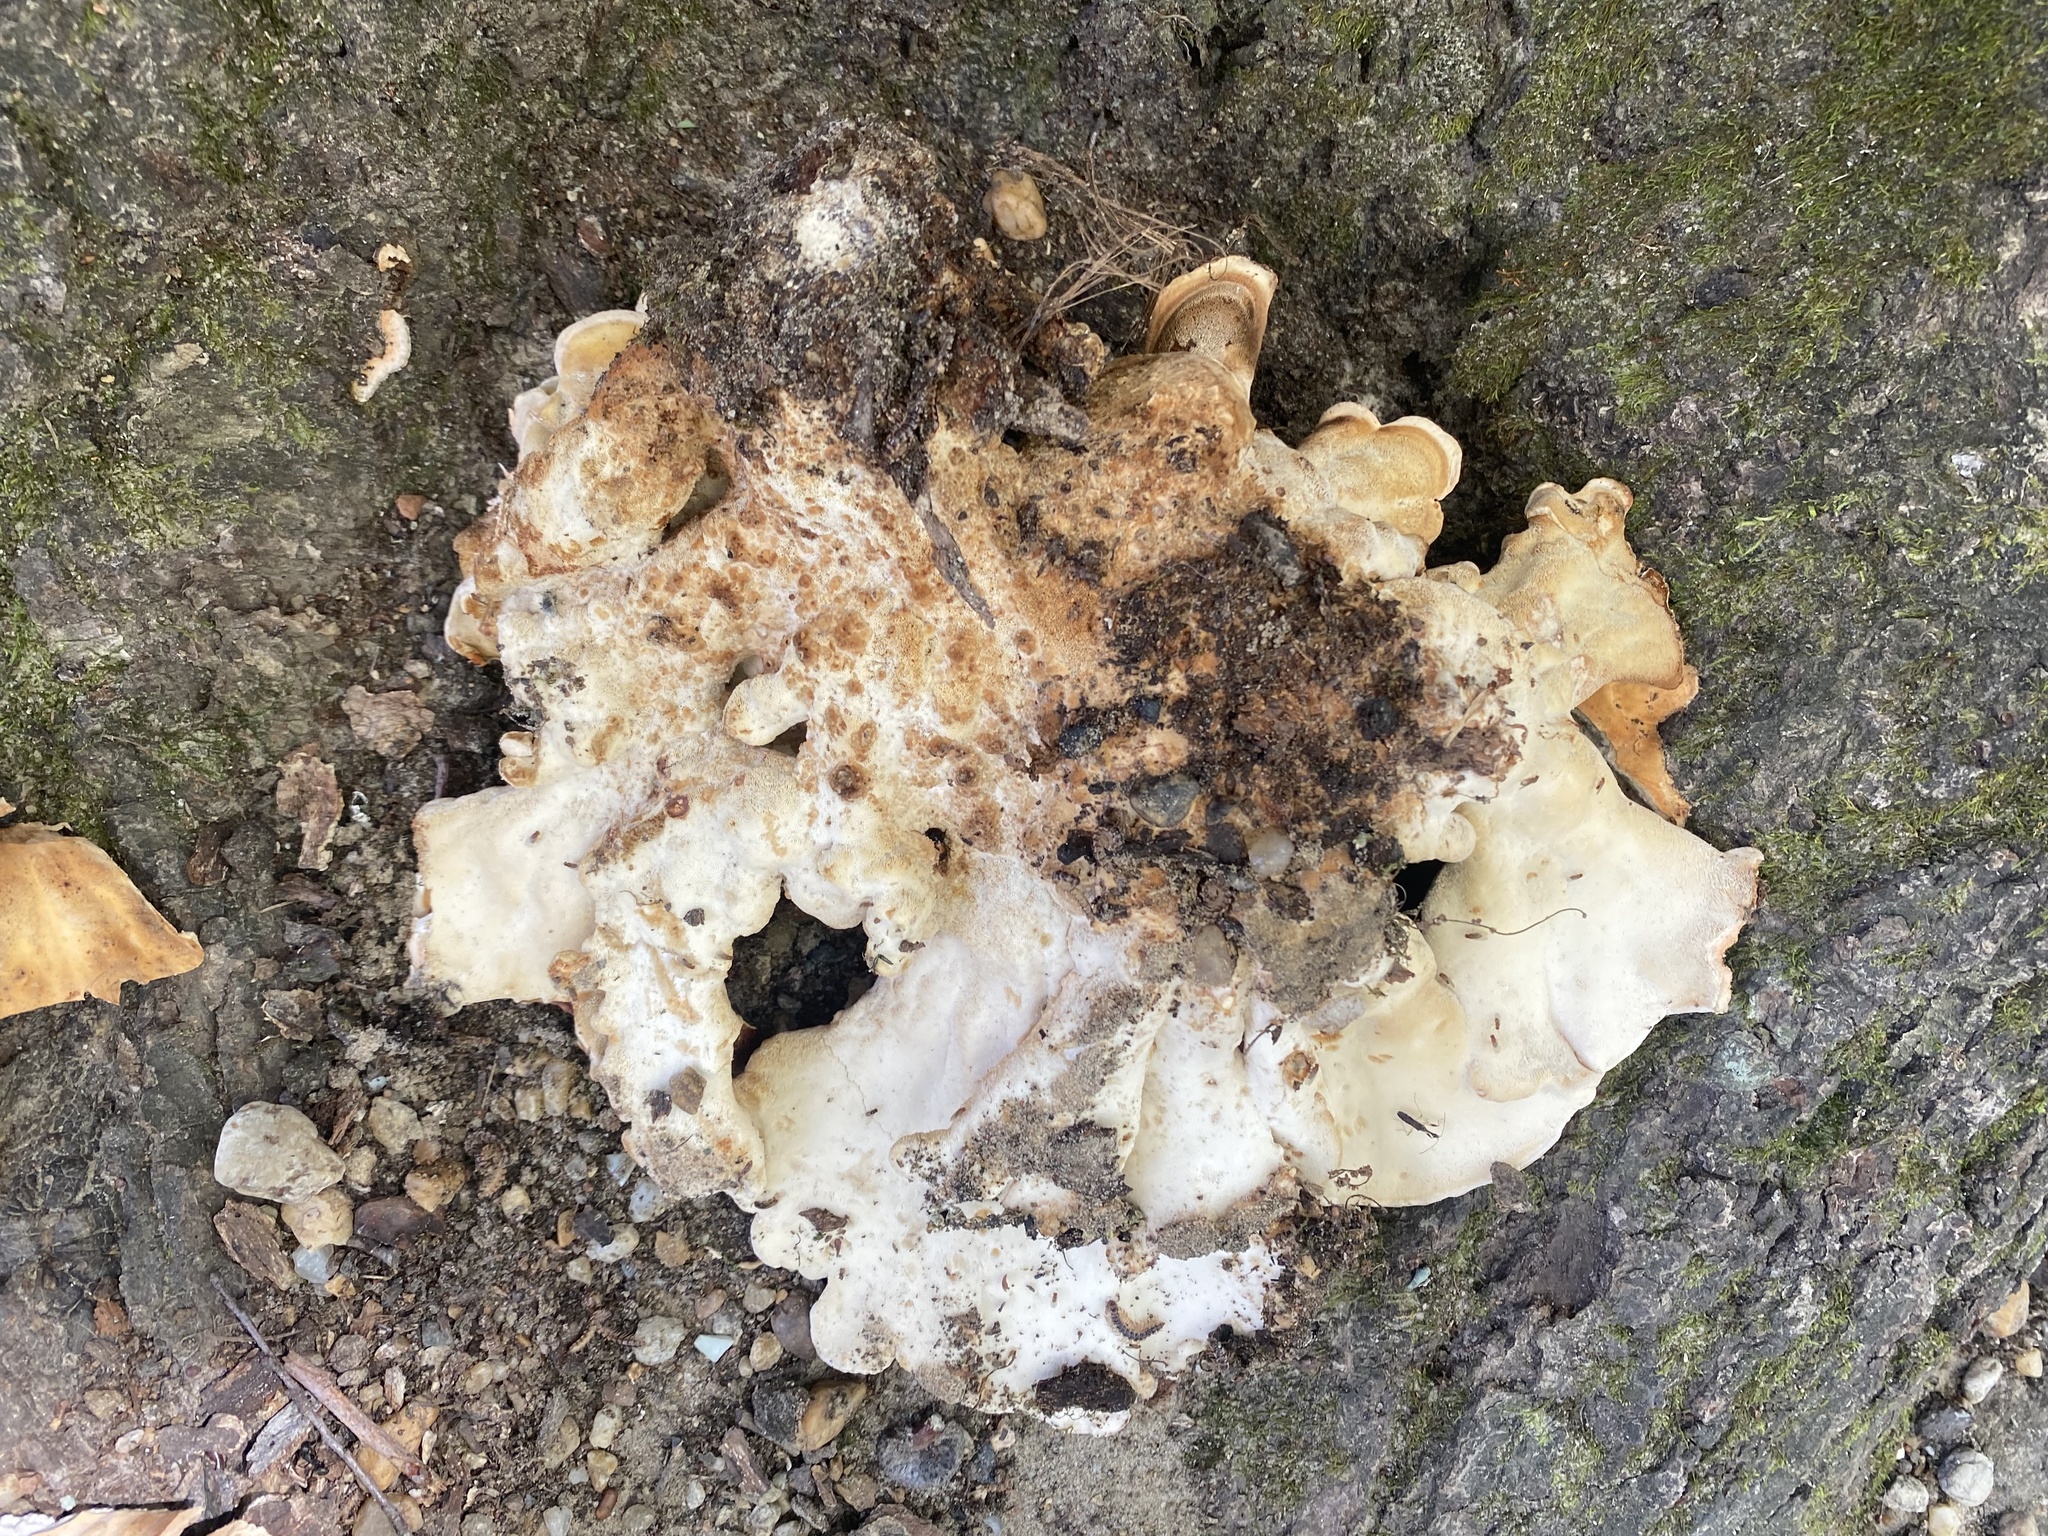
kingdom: Fungi
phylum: Basidiomycota
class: Agaricomycetes
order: Russulales
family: Bondarzewiaceae
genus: Bondarzewia
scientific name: Bondarzewia berkeleyi
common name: Berkeley's polypore
